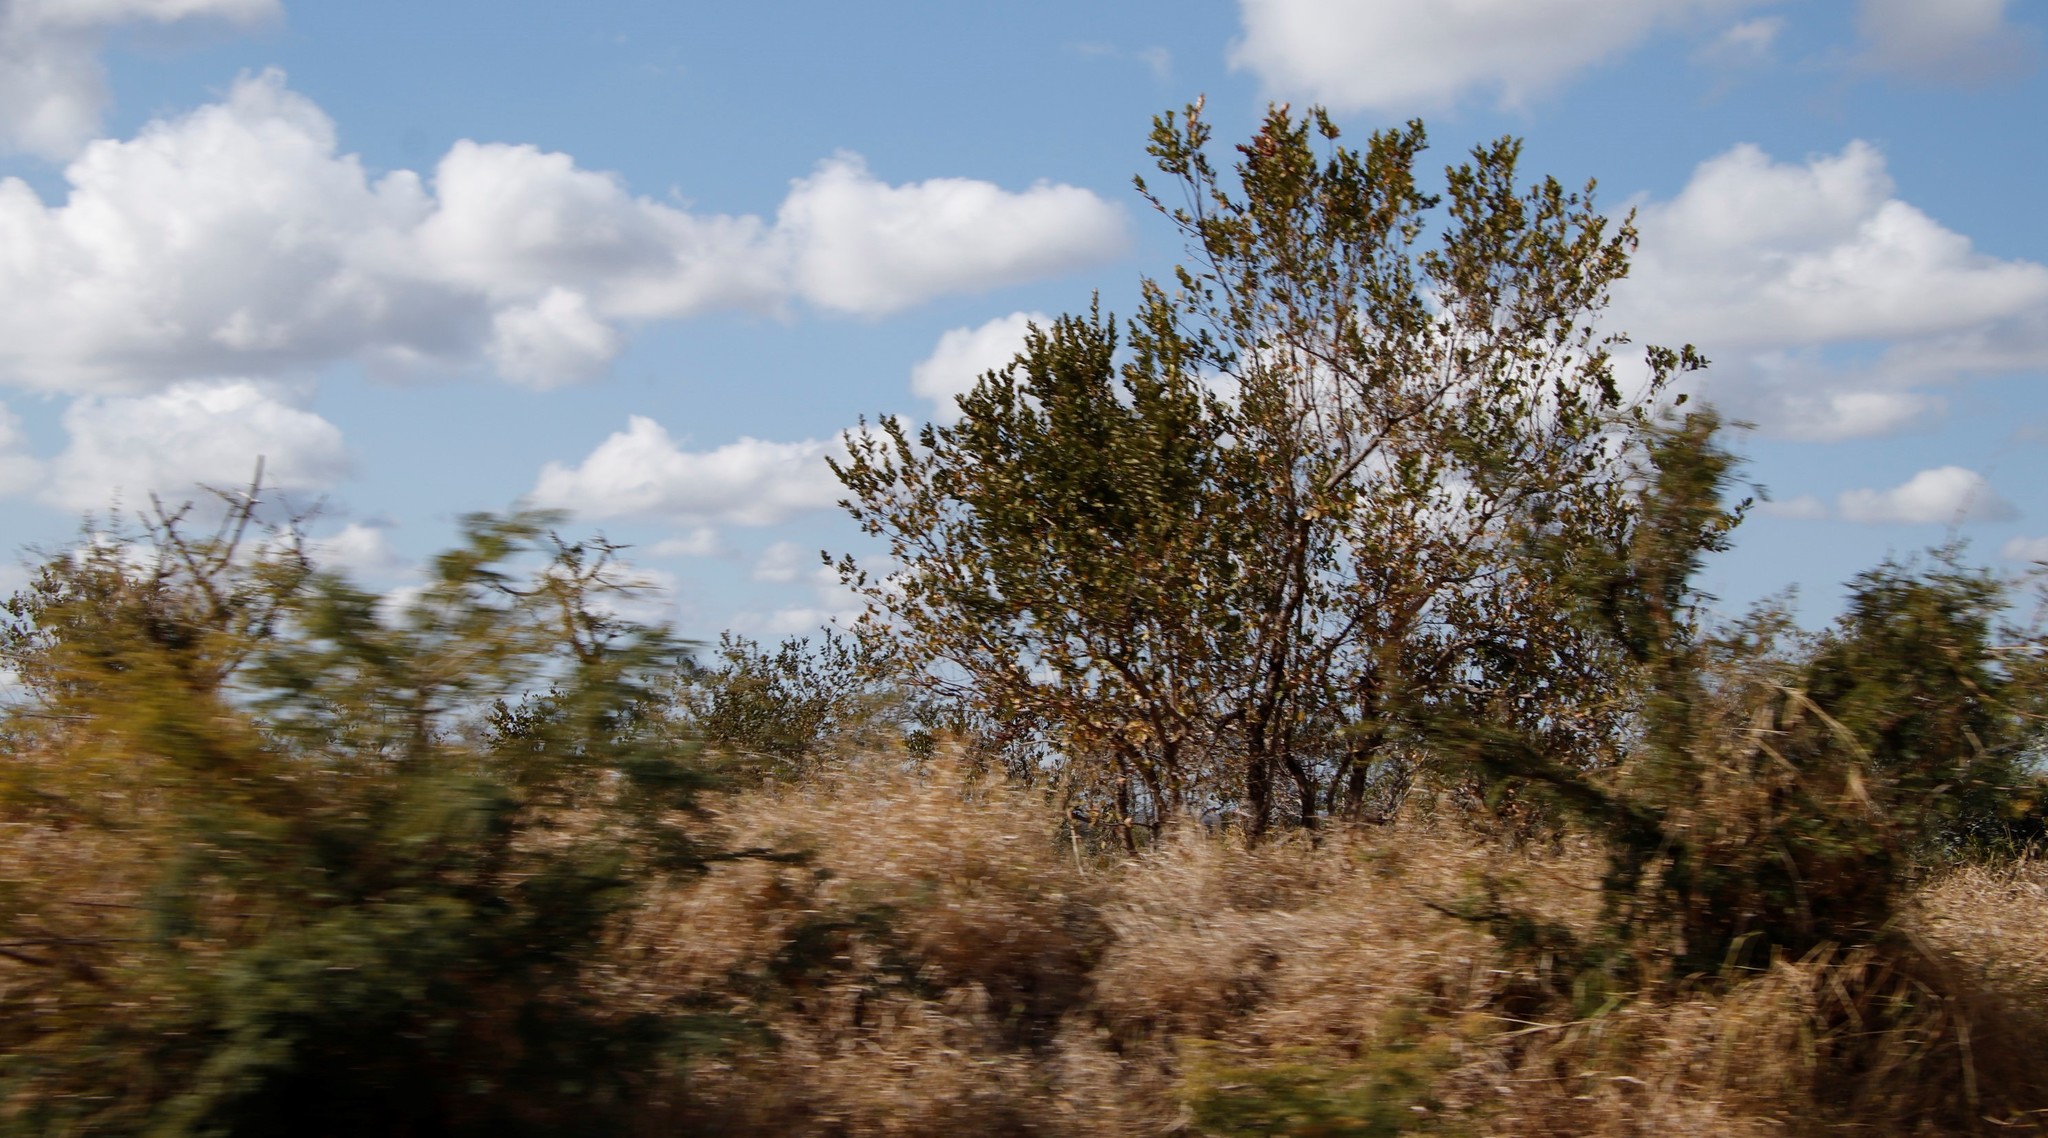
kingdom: Plantae
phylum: Tracheophyta
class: Magnoliopsida
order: Myrtales
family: Combretaceae
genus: Combretum
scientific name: Combretum apiculatum
